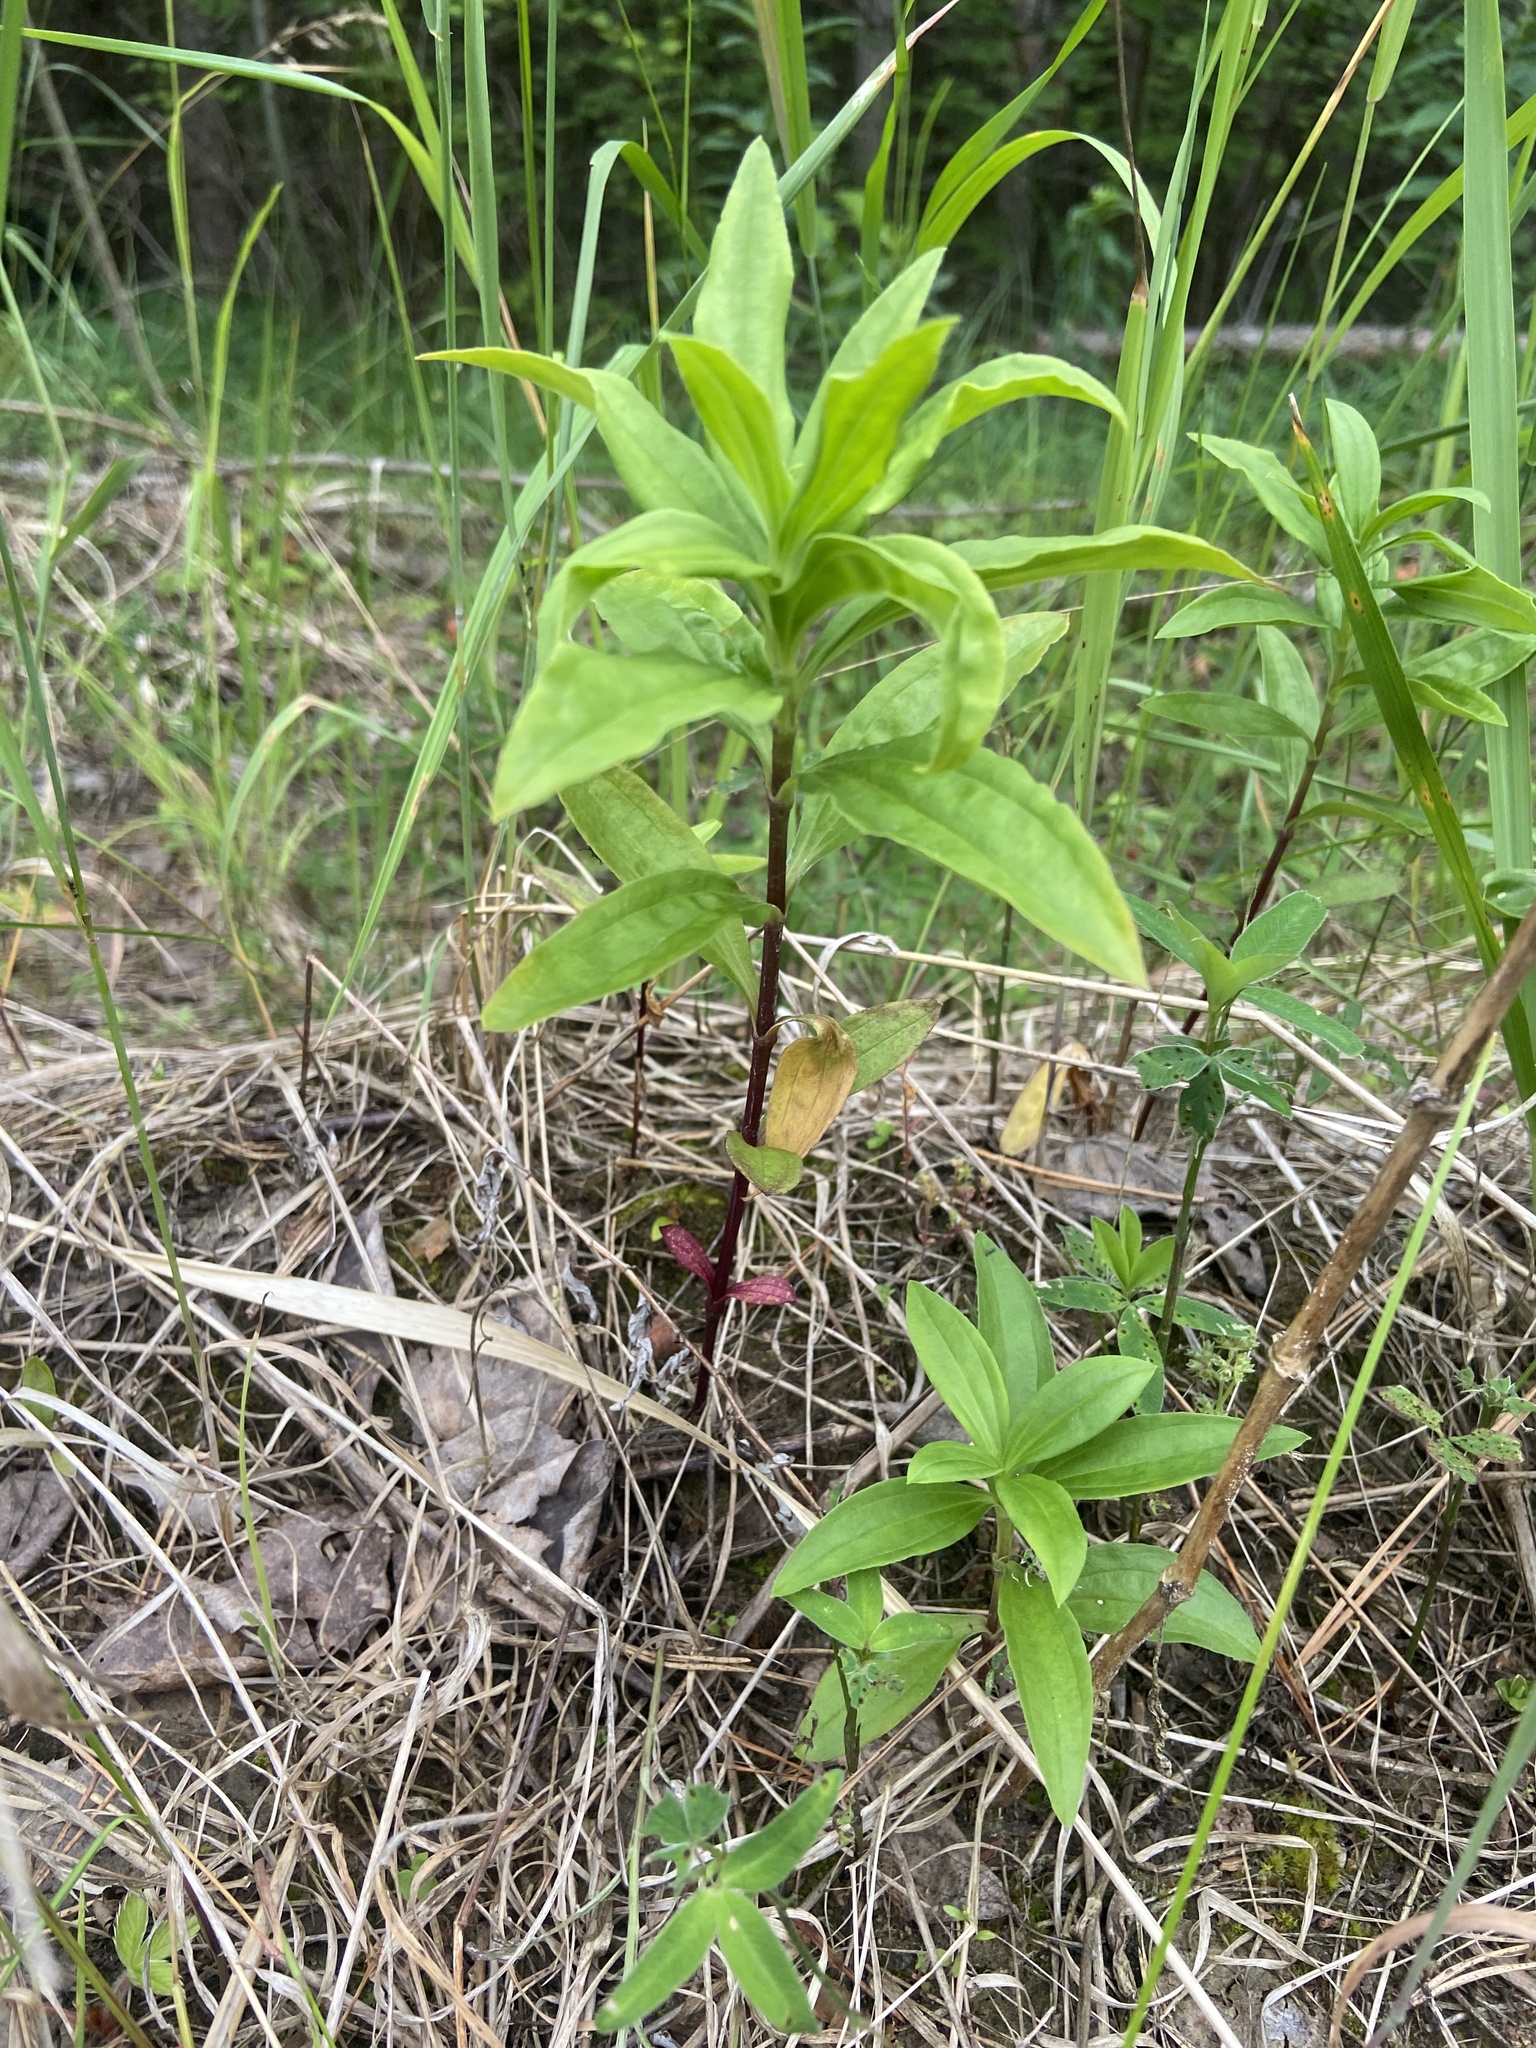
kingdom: Plantae
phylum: Tracheophyta
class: Magnoliopsida
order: Caryophyllales
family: Caryophyllaceae
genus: Saponaria
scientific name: Saponaria officinalis
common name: Soapwort
